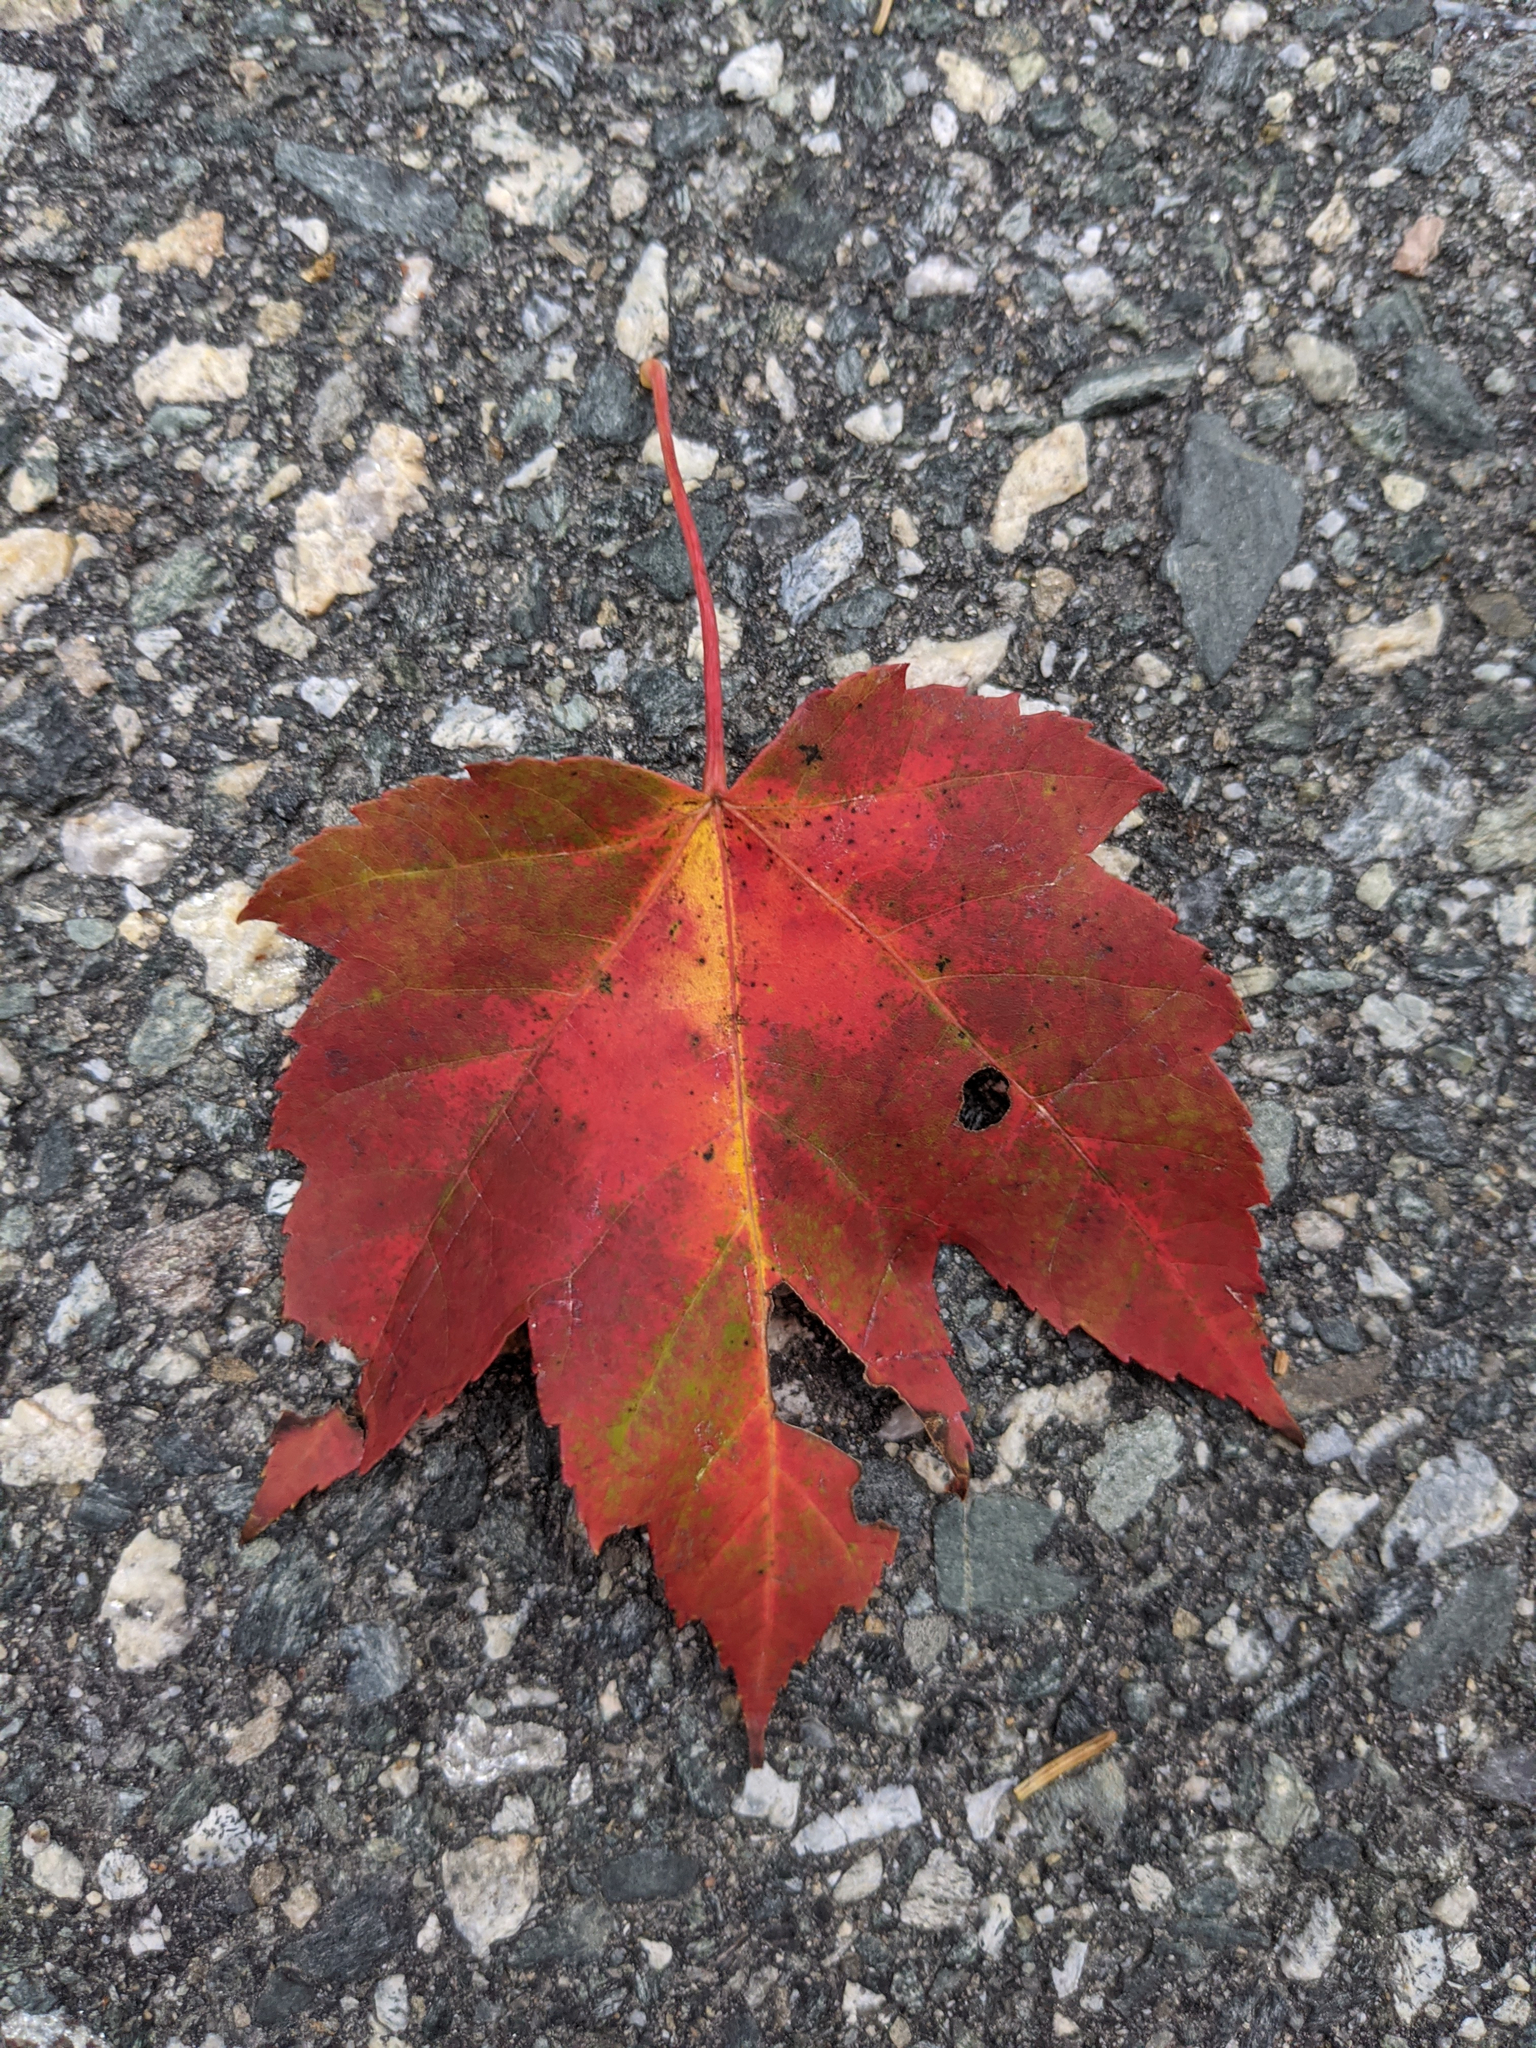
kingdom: Plantae
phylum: Tracheophyta
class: Magnoliopsida
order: Sapindales
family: Sapindaceae
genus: Acer
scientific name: Acer rubrum
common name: Red maple
